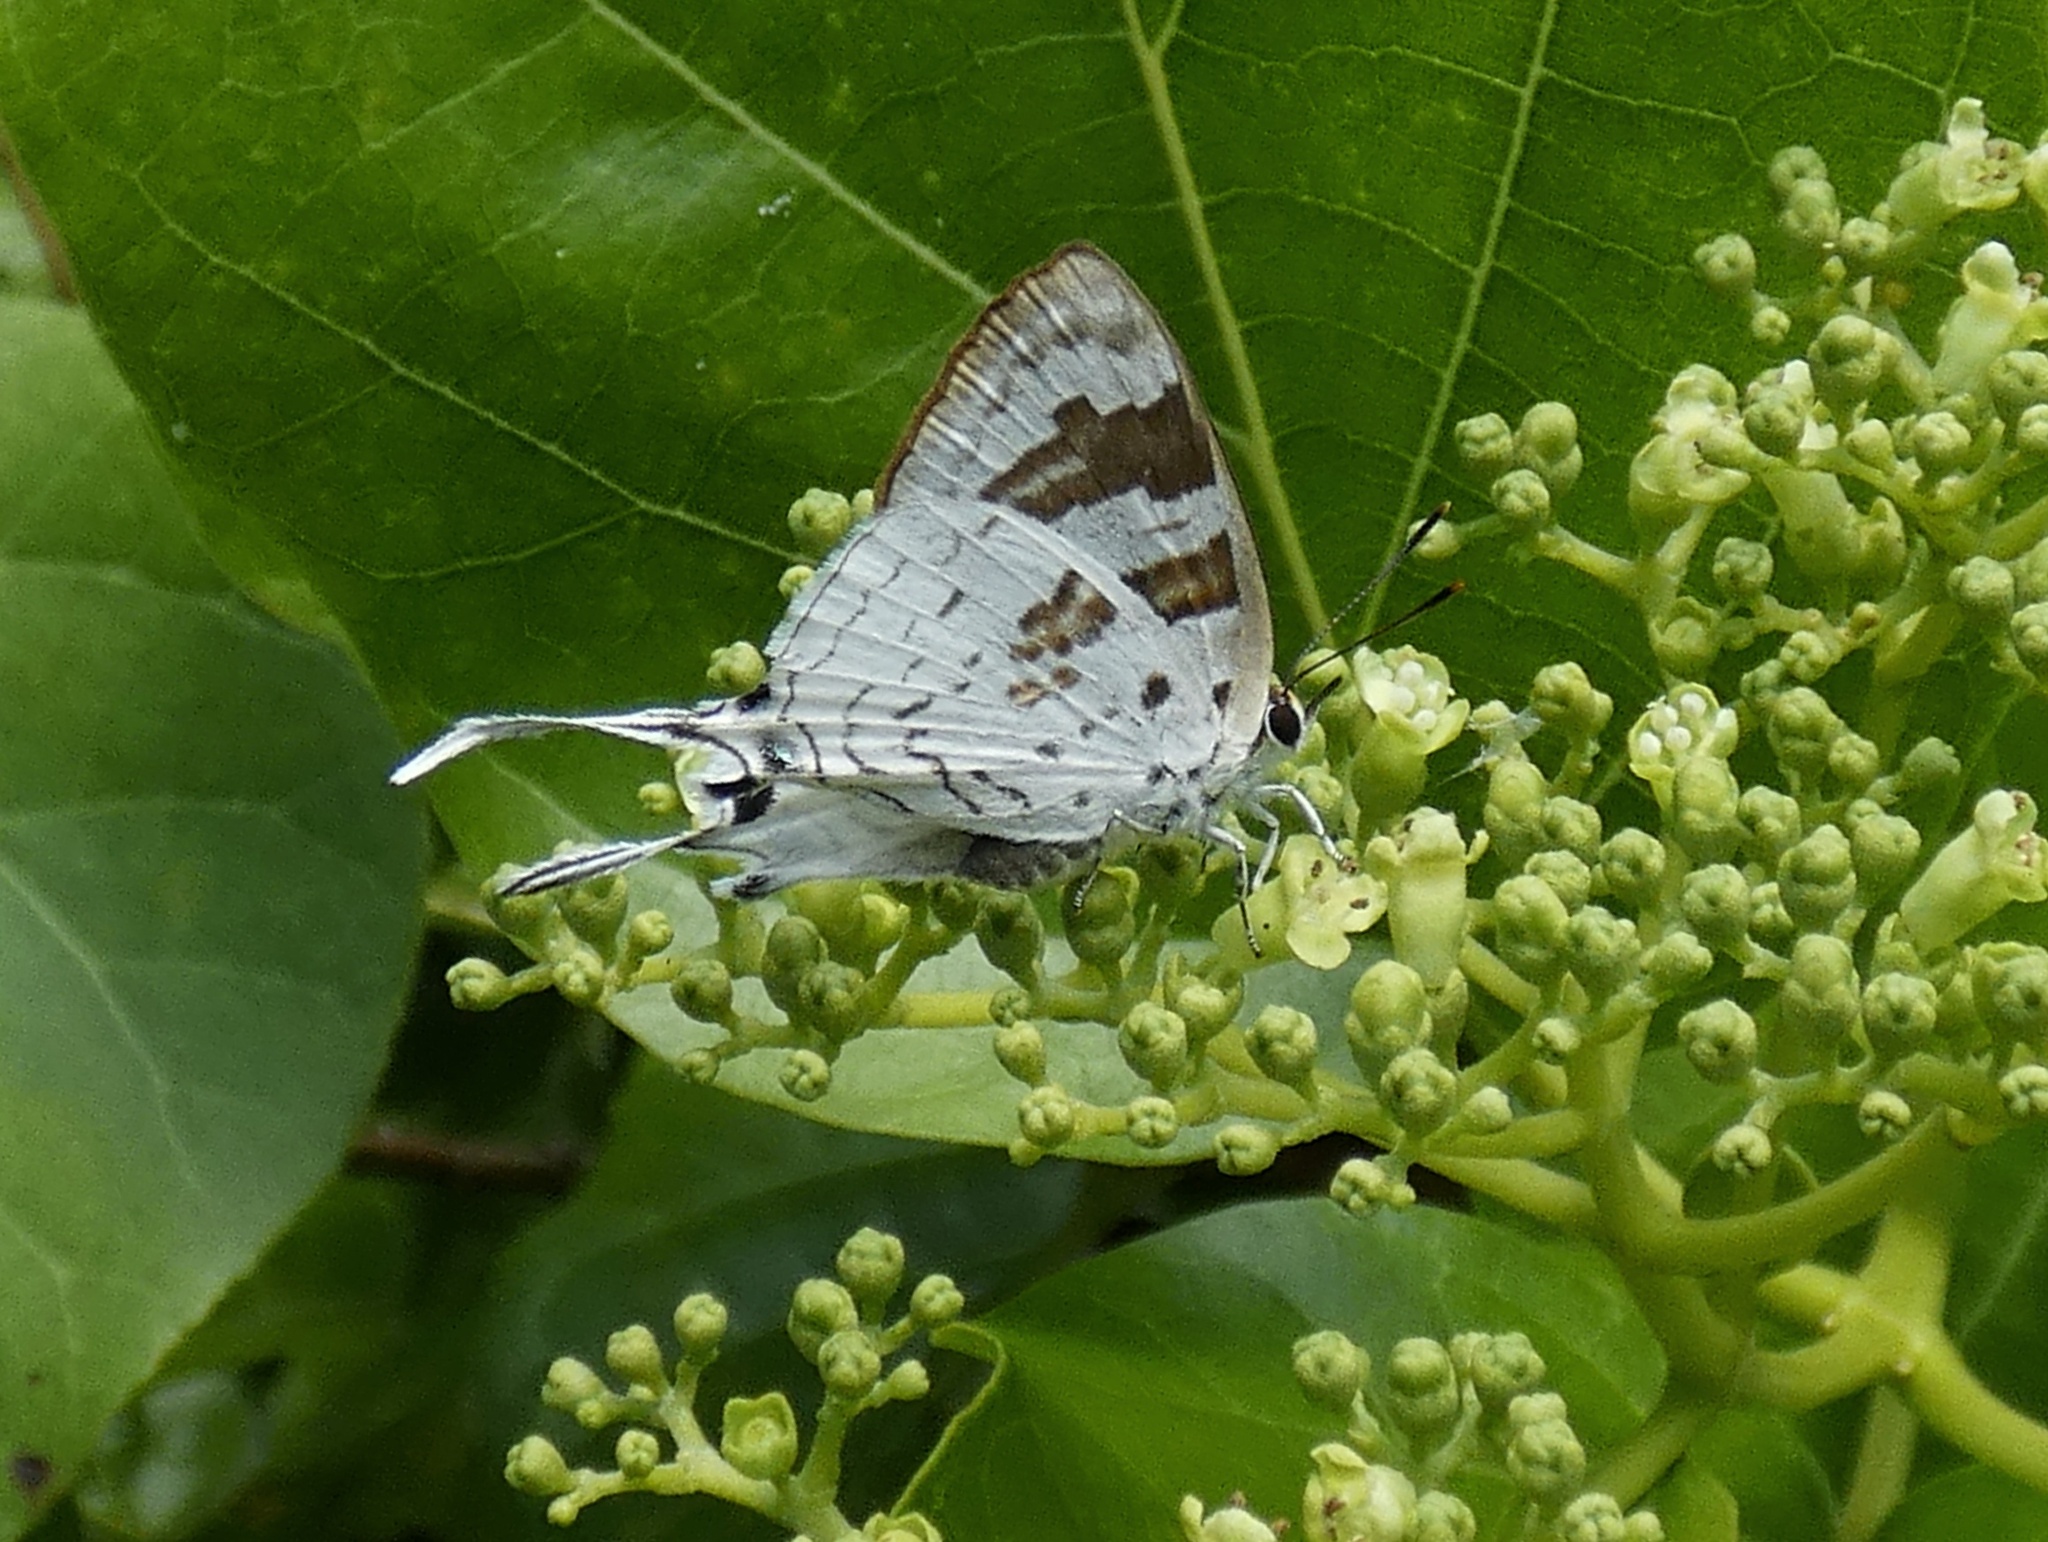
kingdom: Animalia
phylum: Arthropoda
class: Insecta
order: Lepidoptera
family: Lycaenidae
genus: Bindahara
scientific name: Bindahara phocides
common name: Sword-tailed flash
